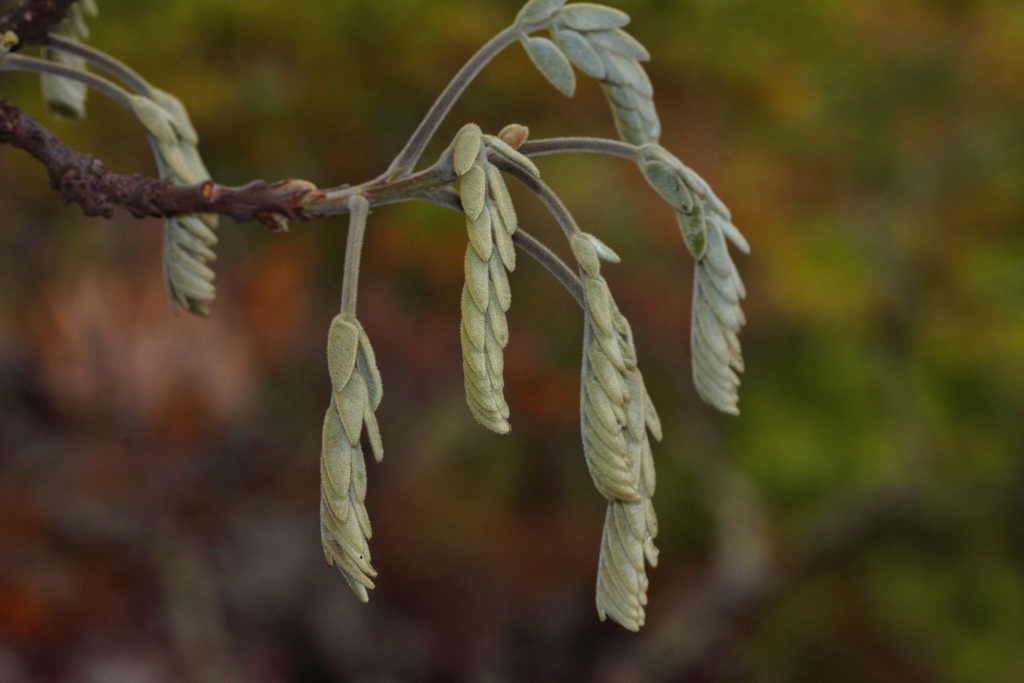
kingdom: Plantae
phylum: Tracheophyta
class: Magnoliopsida
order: Fabales
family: Fabaceae
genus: Cassia
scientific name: Cassia abbreviata
